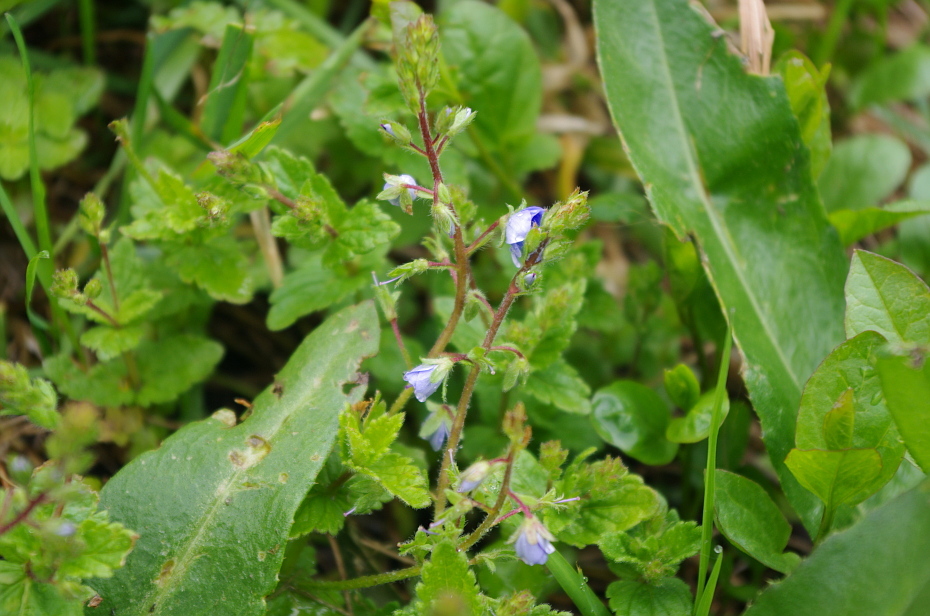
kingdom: Plantae
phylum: Tracheophyta
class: Magnoliopsida
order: Lamiales
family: Plantaginaceae
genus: Veronica
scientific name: Veronica chamaedrys
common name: Germander speedwell
